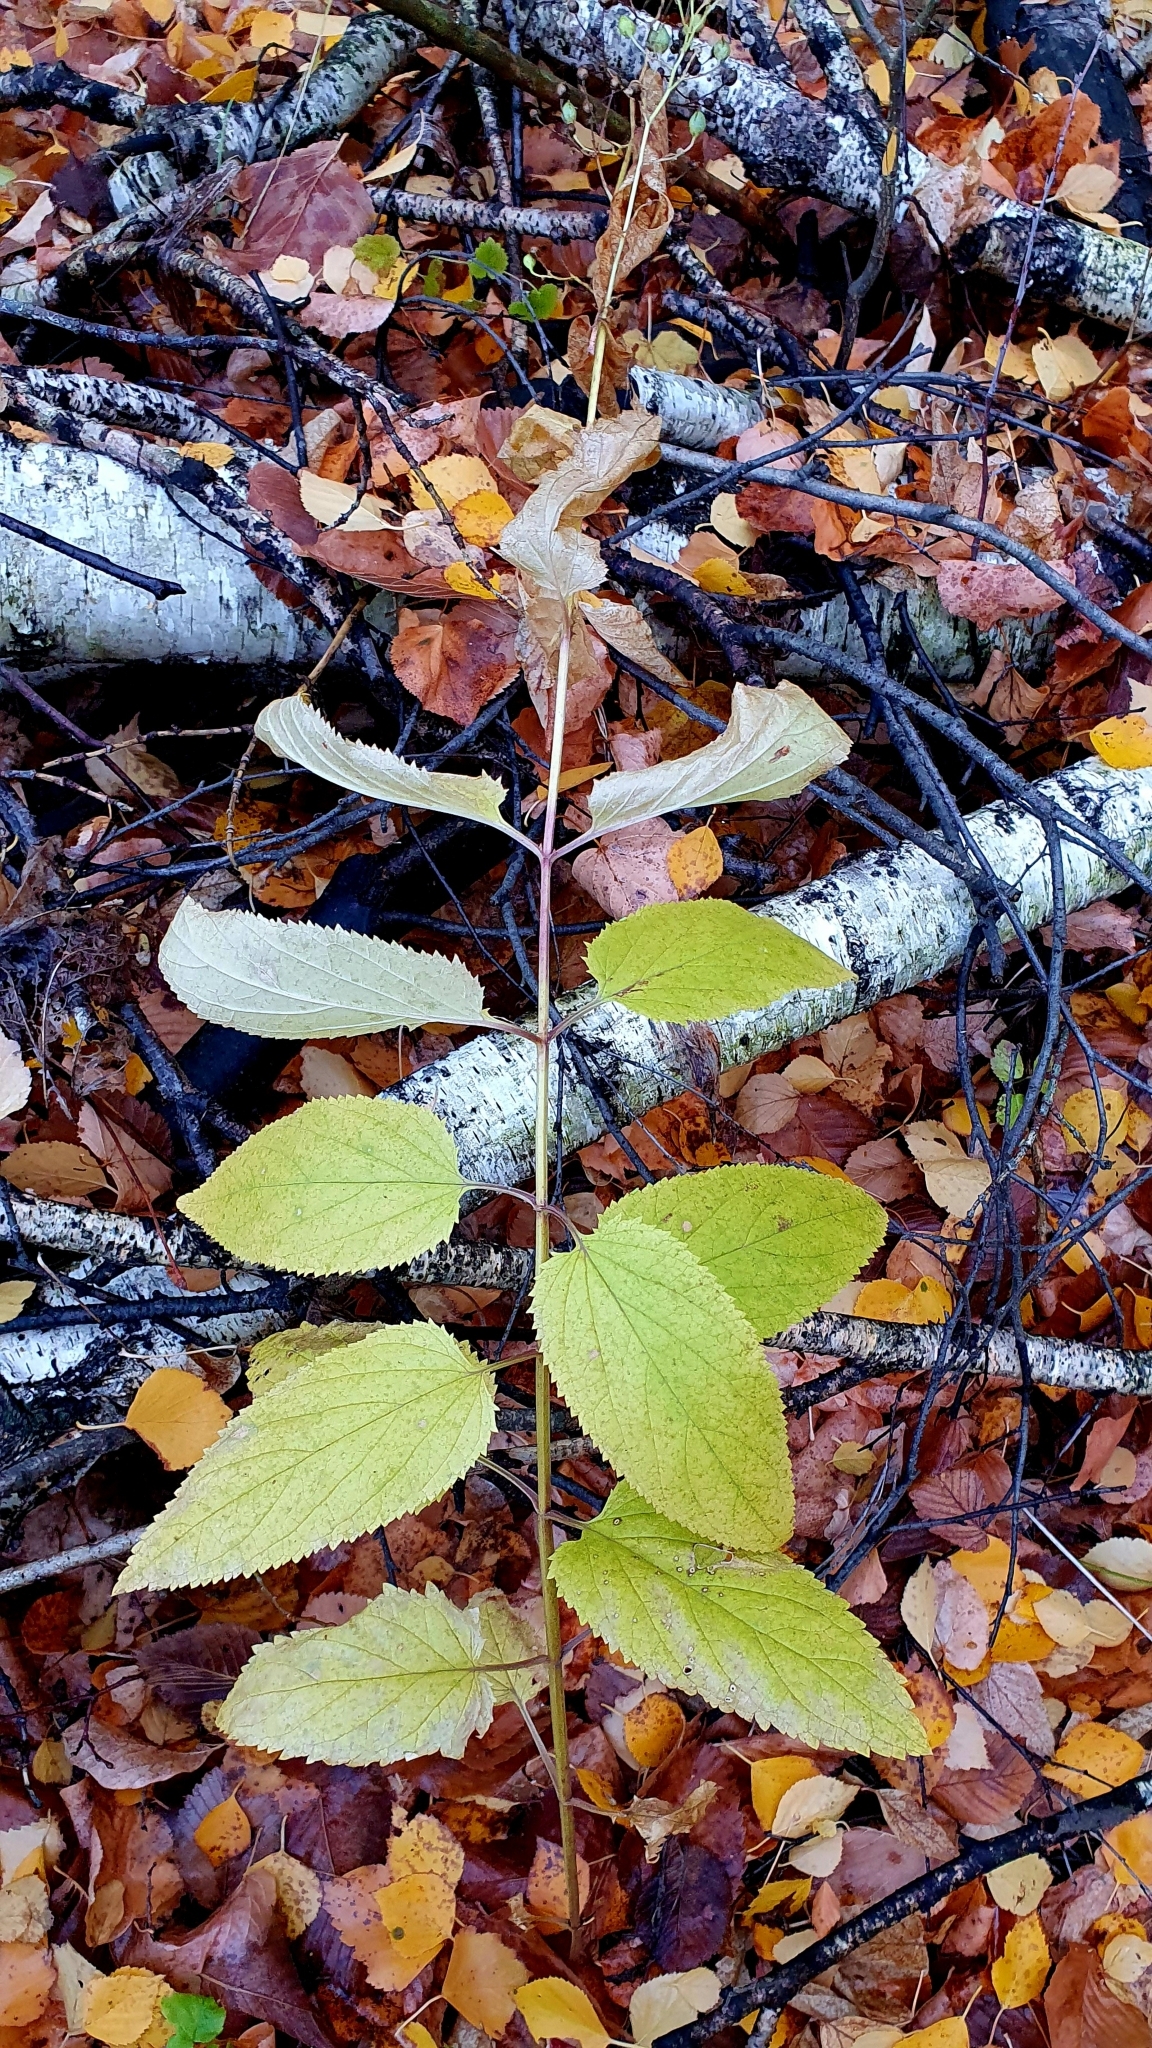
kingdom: Plantae
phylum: Tracheophyta
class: Magnoliopsida
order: Lamiales
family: Scrophulariaceae
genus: Scrophularia
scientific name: Scrophularia nodosa
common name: Common figwort
